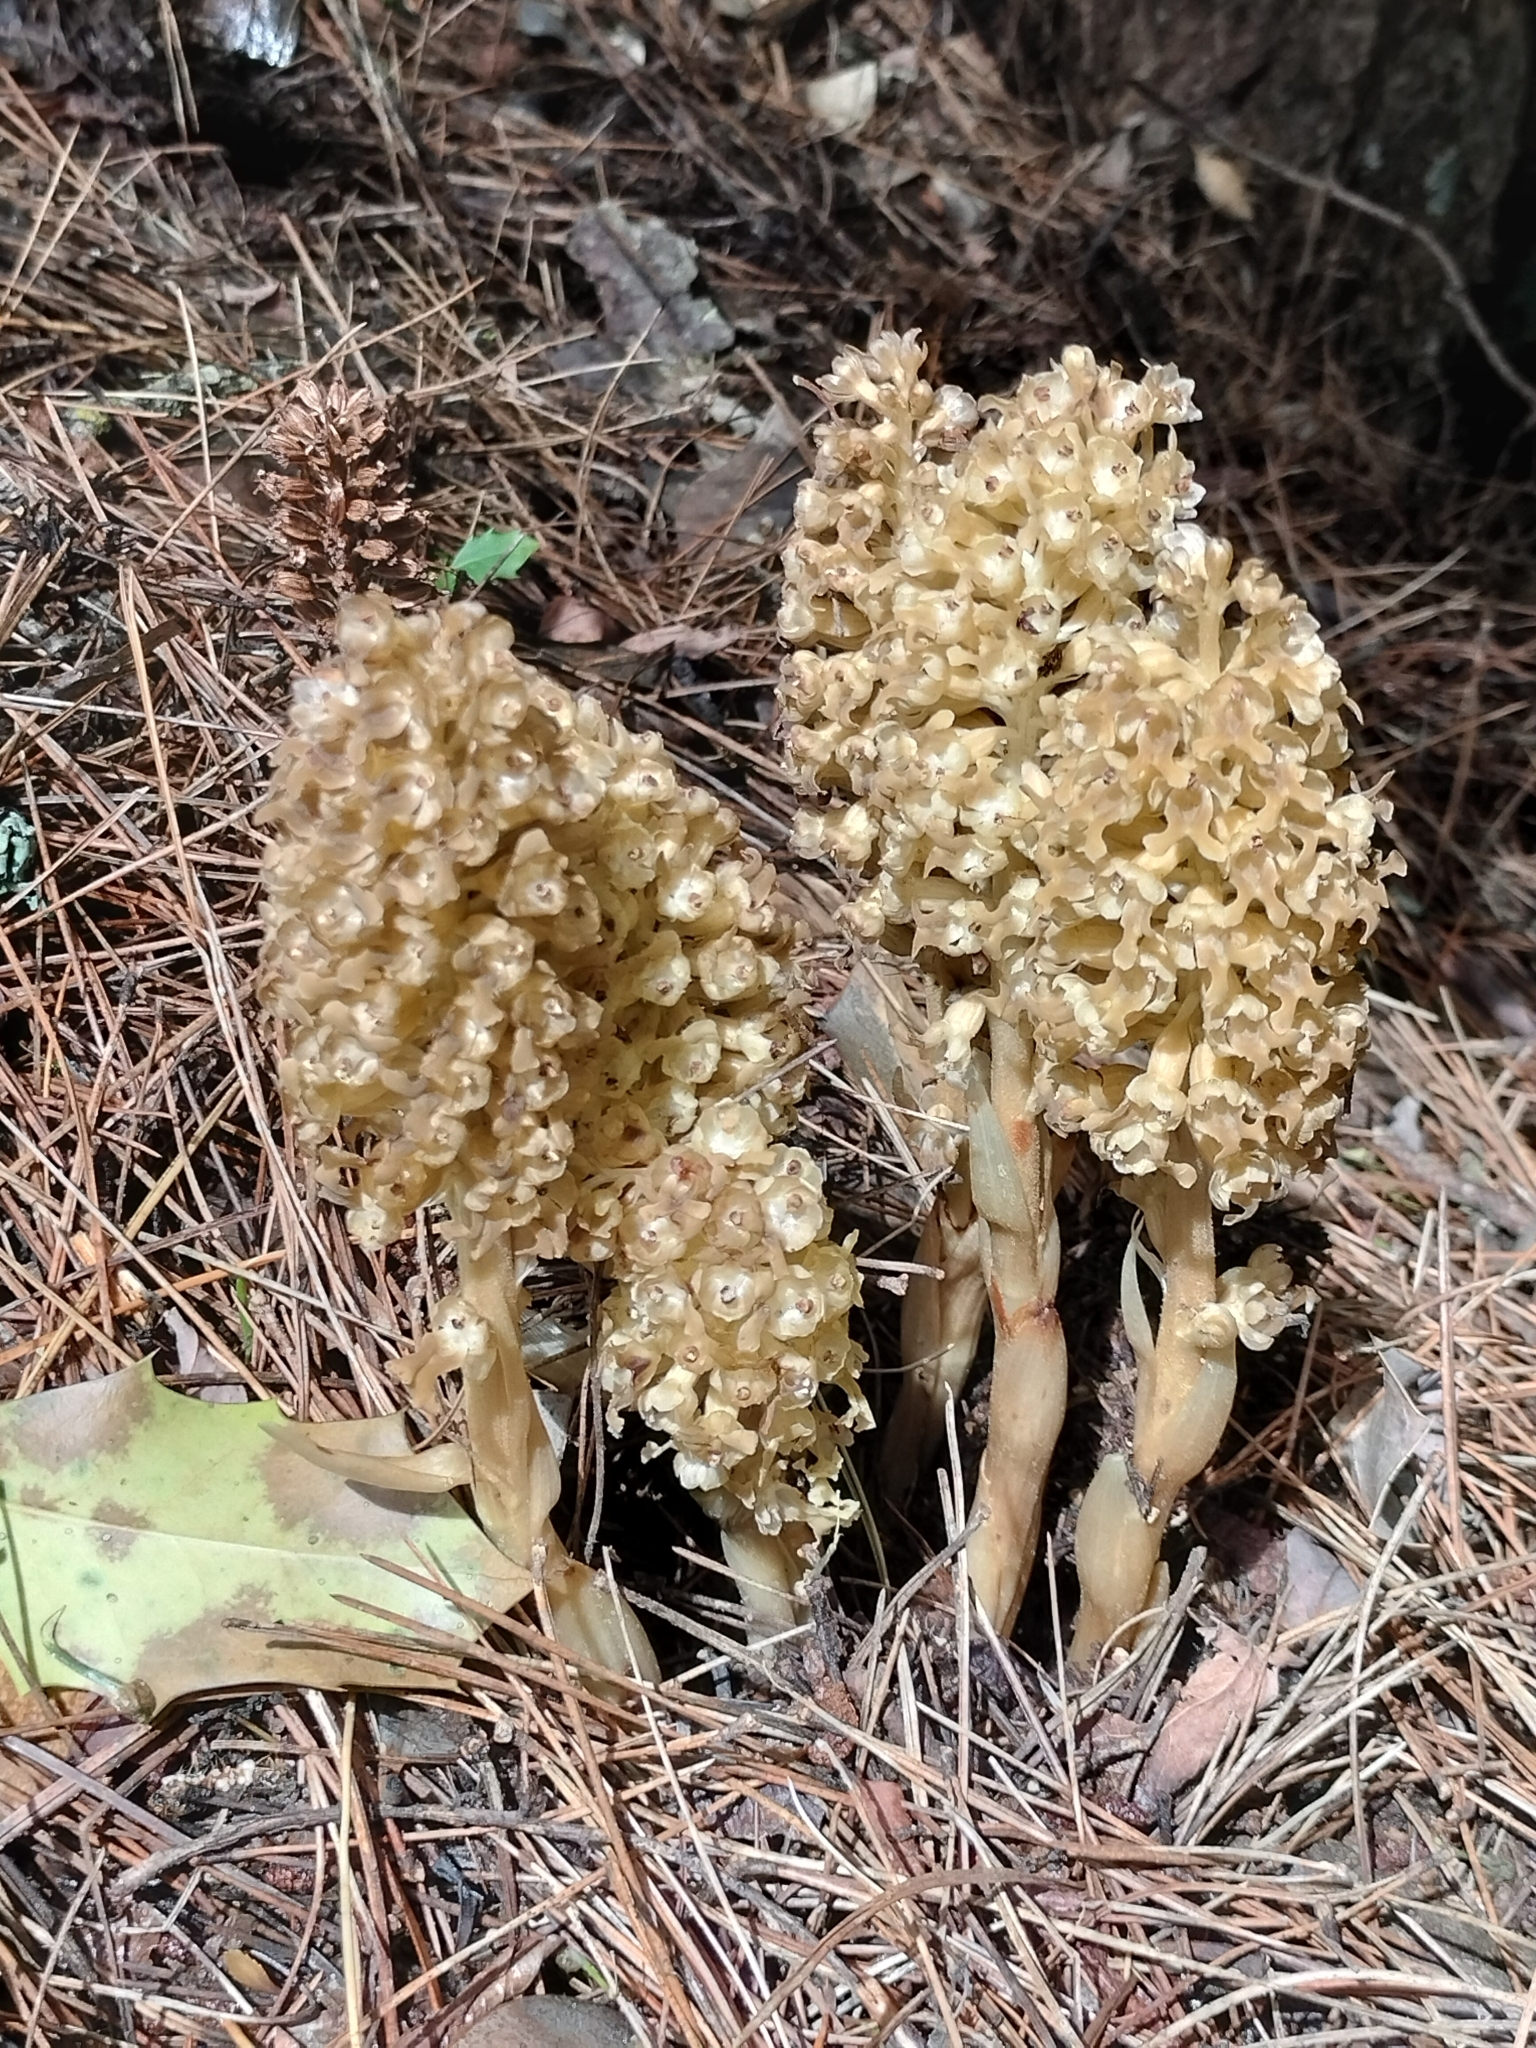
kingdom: Plantae
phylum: Tracheophyta
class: Liliopsida
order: Asparagales
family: Orchidaceae
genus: Neottia
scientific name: Neottia nidus-avis
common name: Bird's-nest orchid
